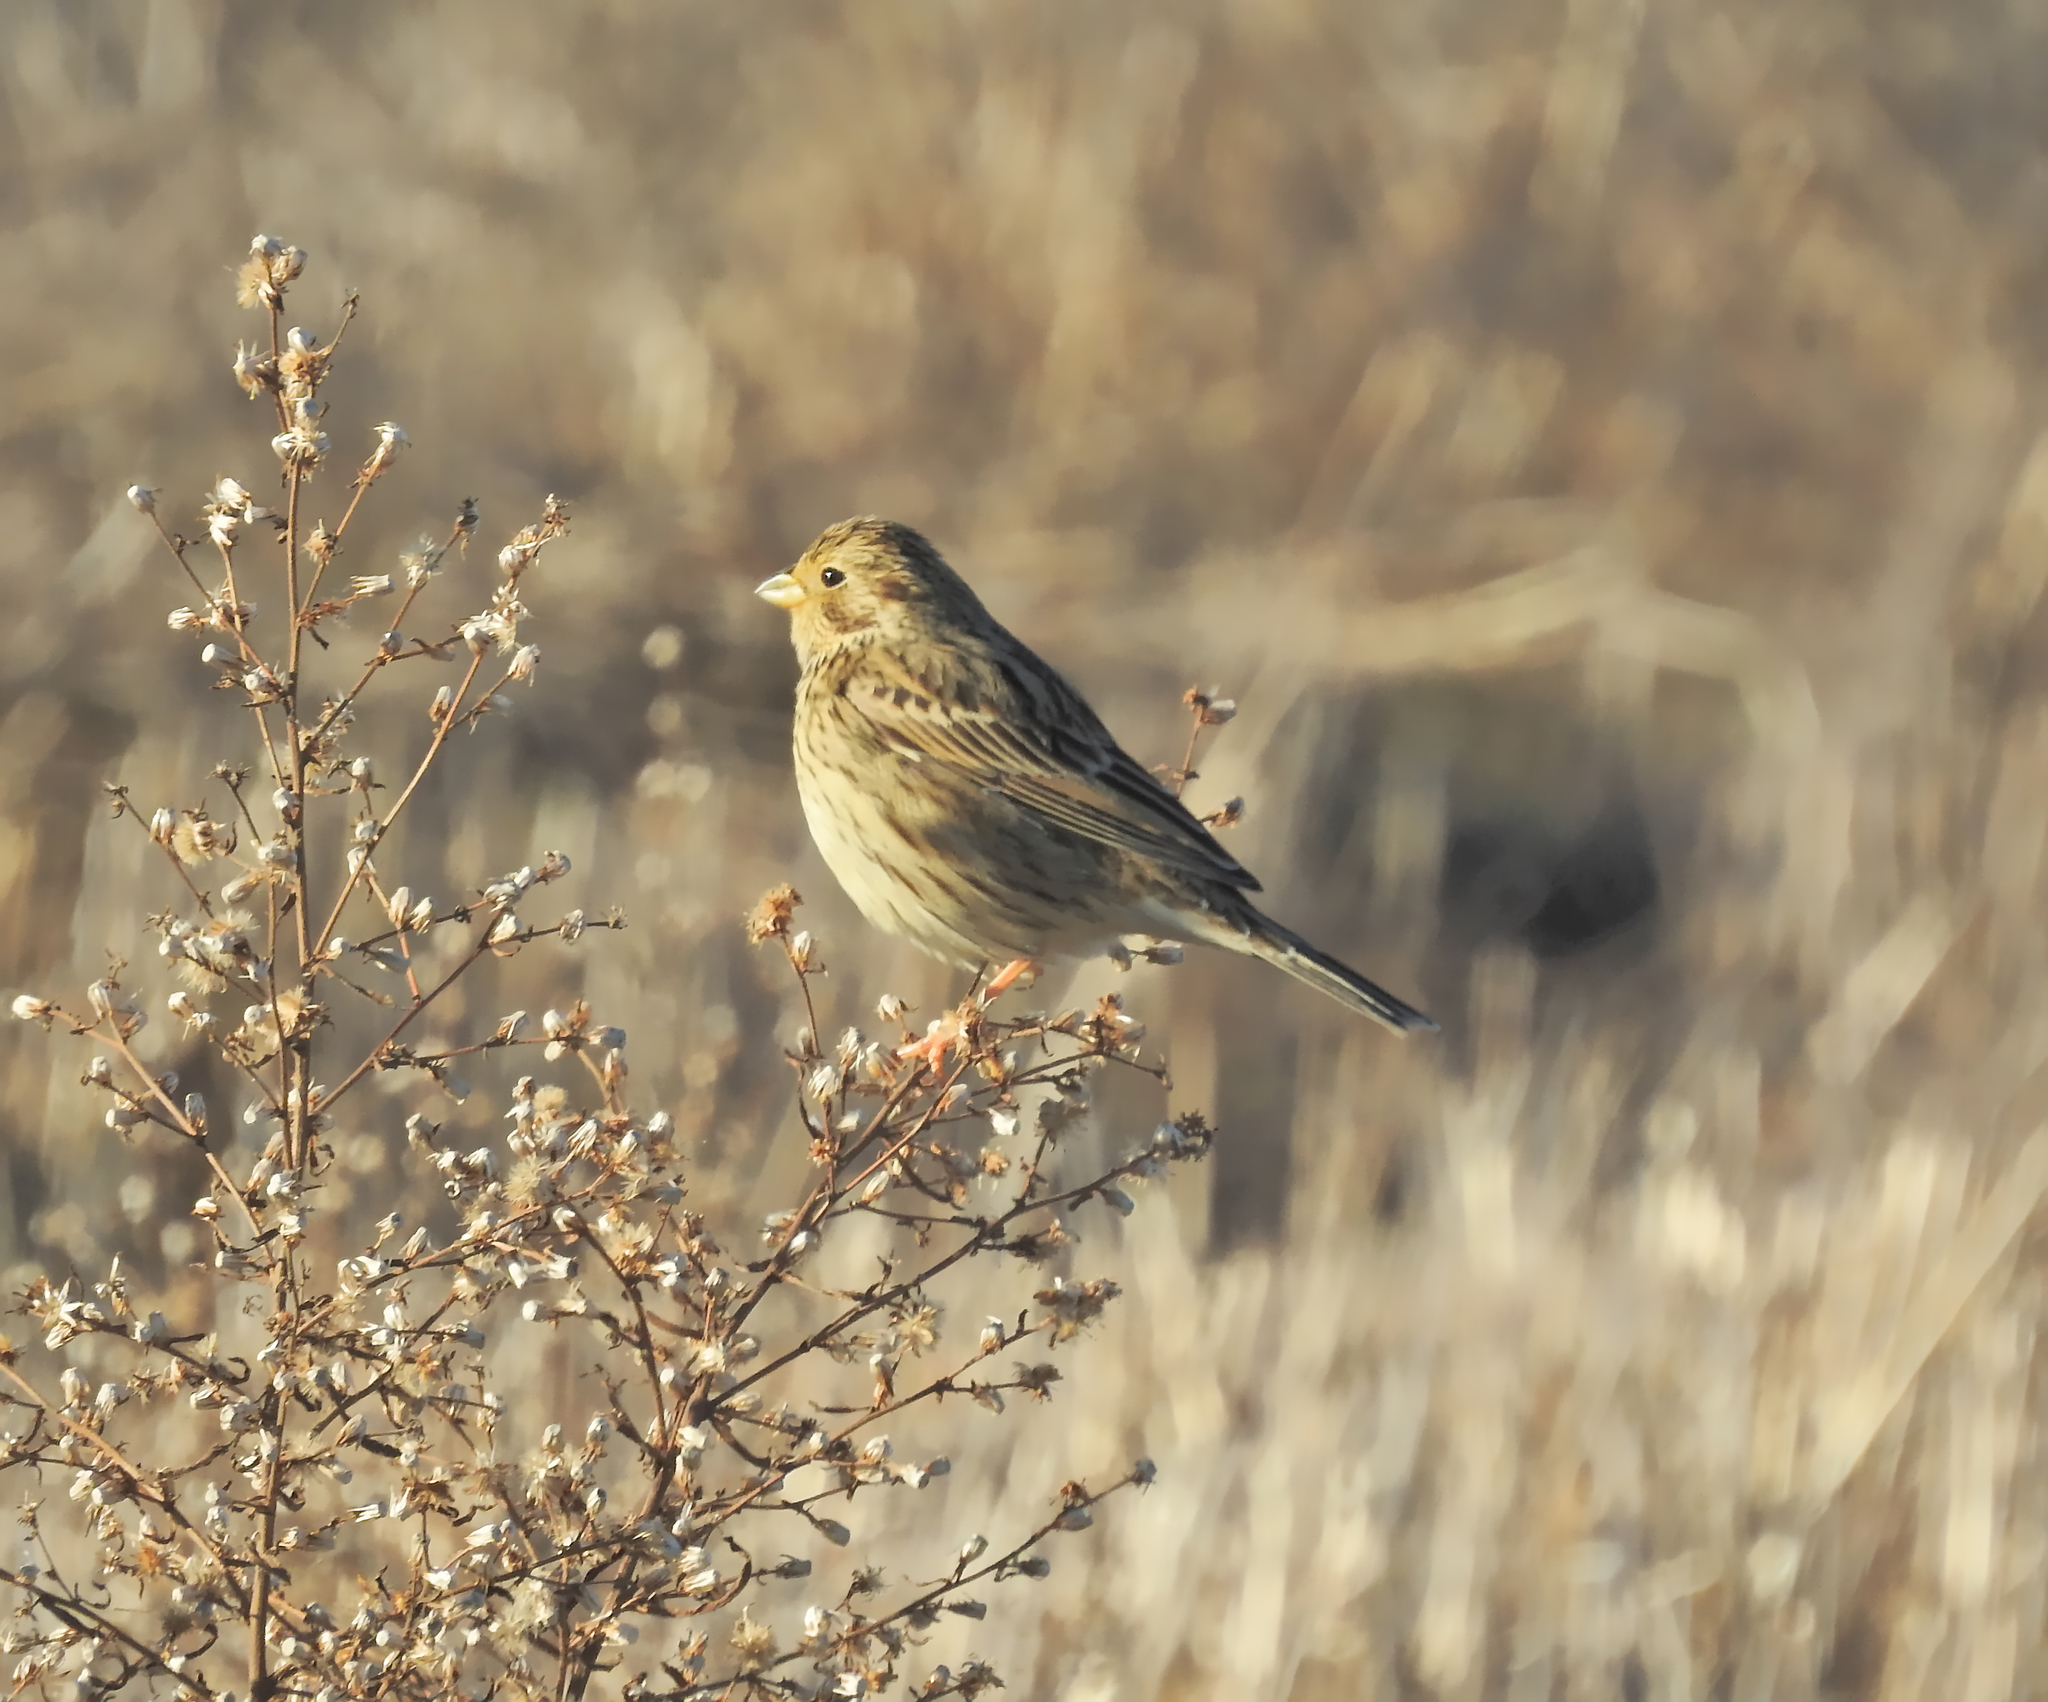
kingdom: Animalia
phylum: Chordata
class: Aves
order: Passeriformes
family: Emberizidae
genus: Emberiza
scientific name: Emberiza calandra
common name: Corn bunting
